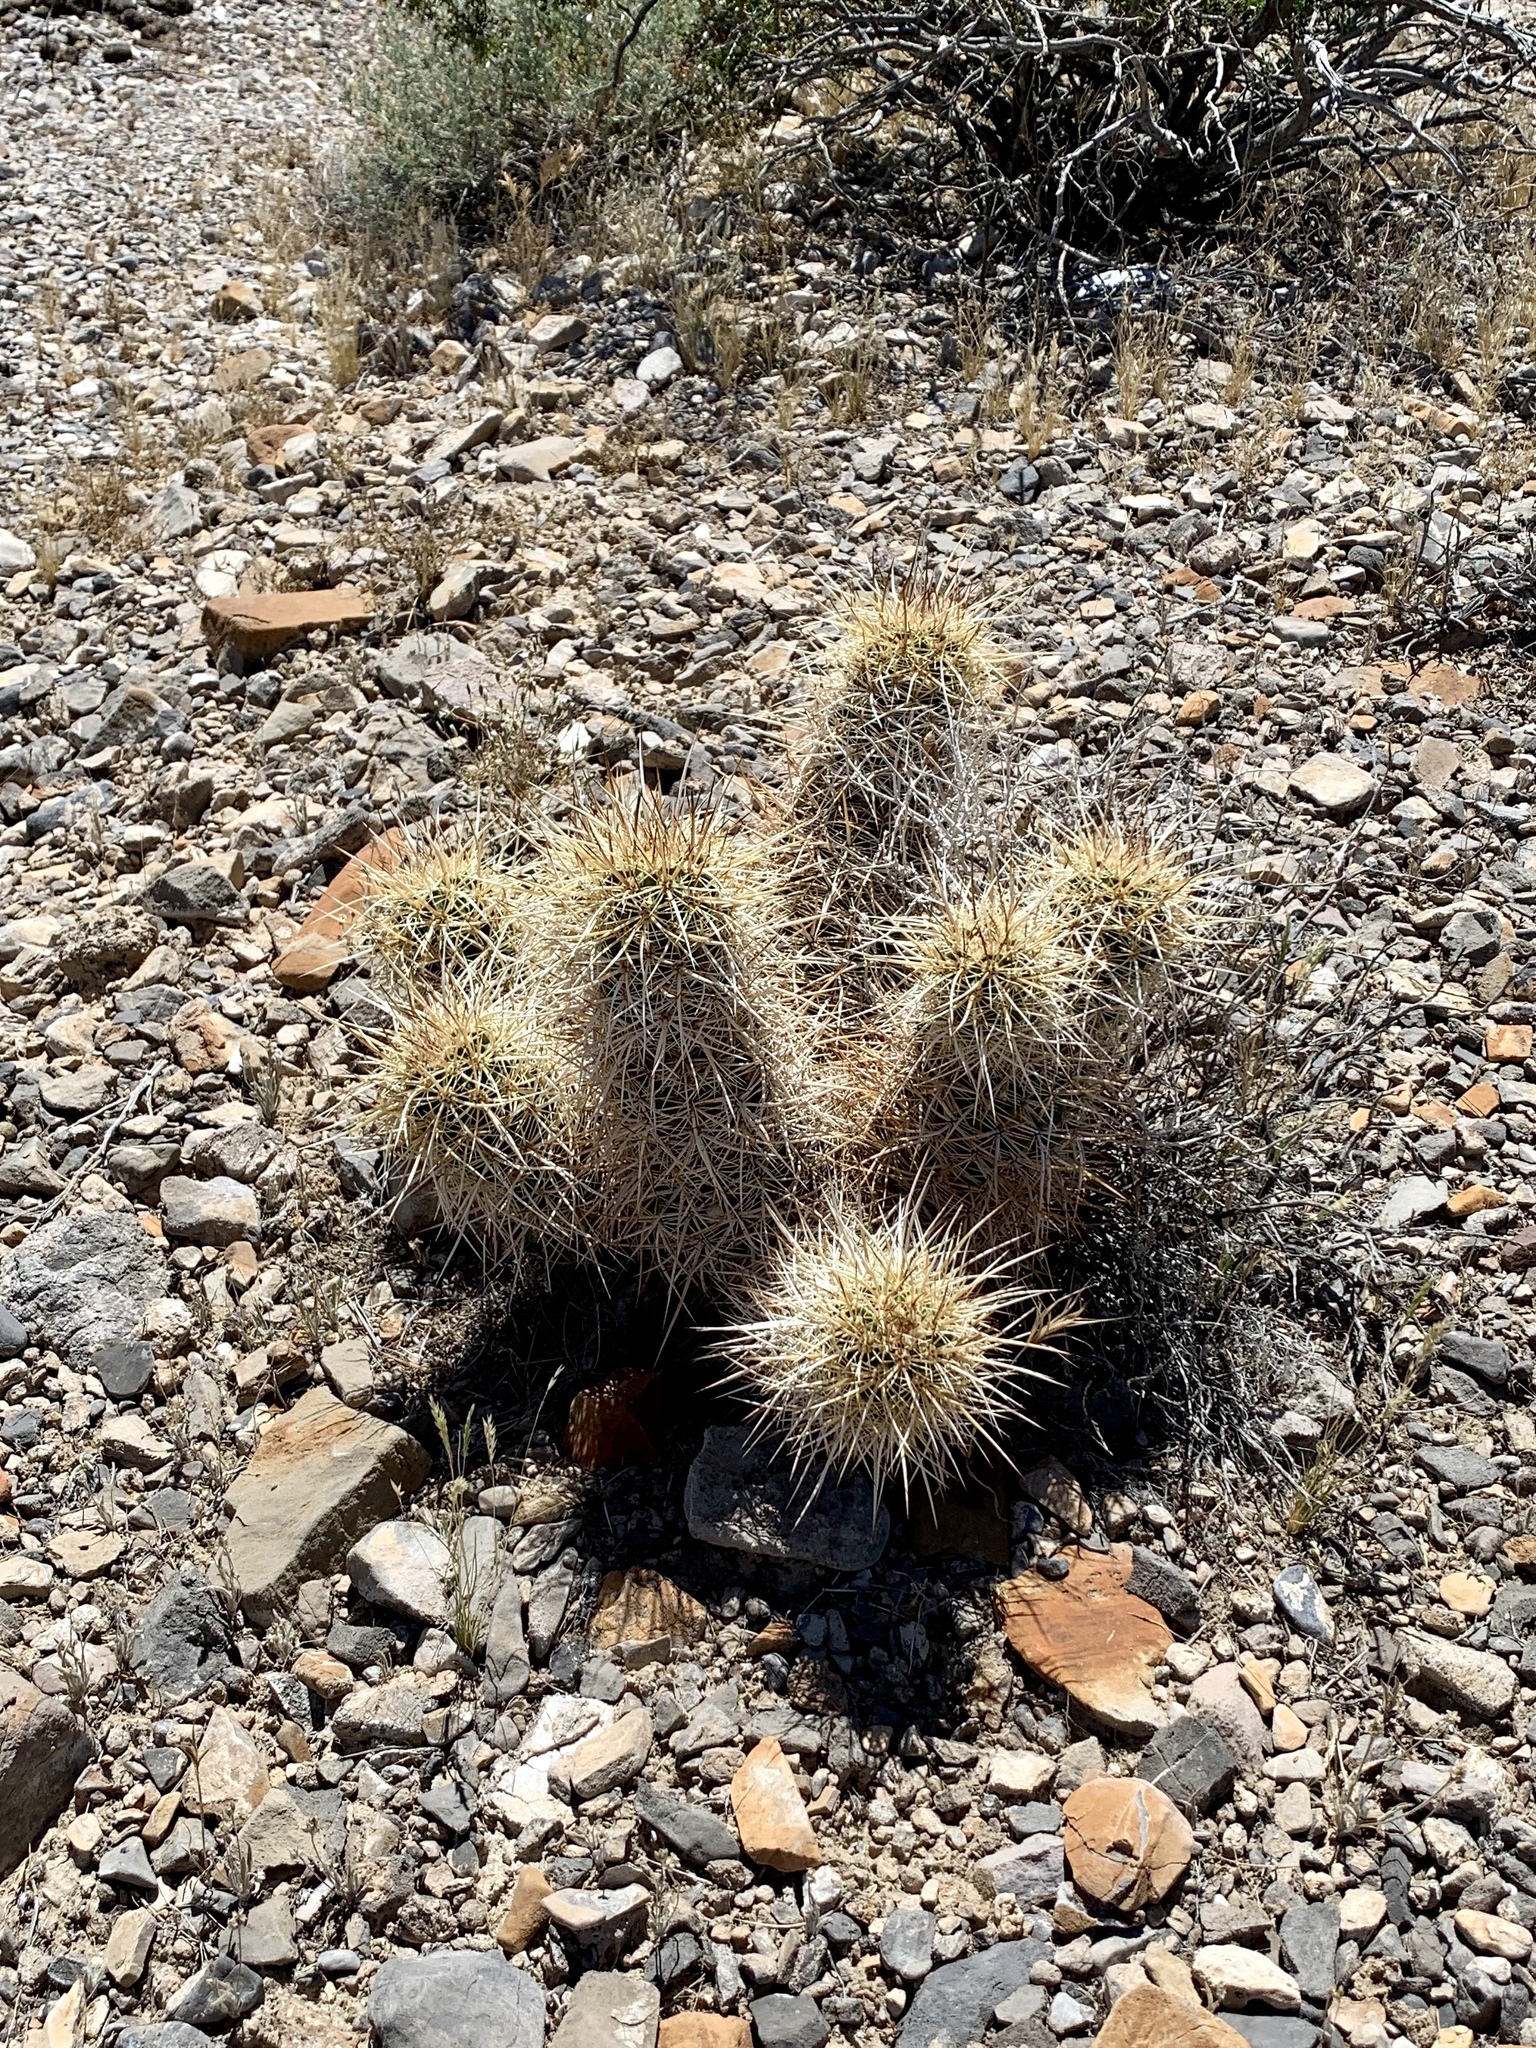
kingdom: Plantae
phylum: Tracheophyta
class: Magnoliopsida
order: Caryophyllales
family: Cactaceae
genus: Echinocereus
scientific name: Echinocereus engelmannii
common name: Engelmann's hedgehog cactus
